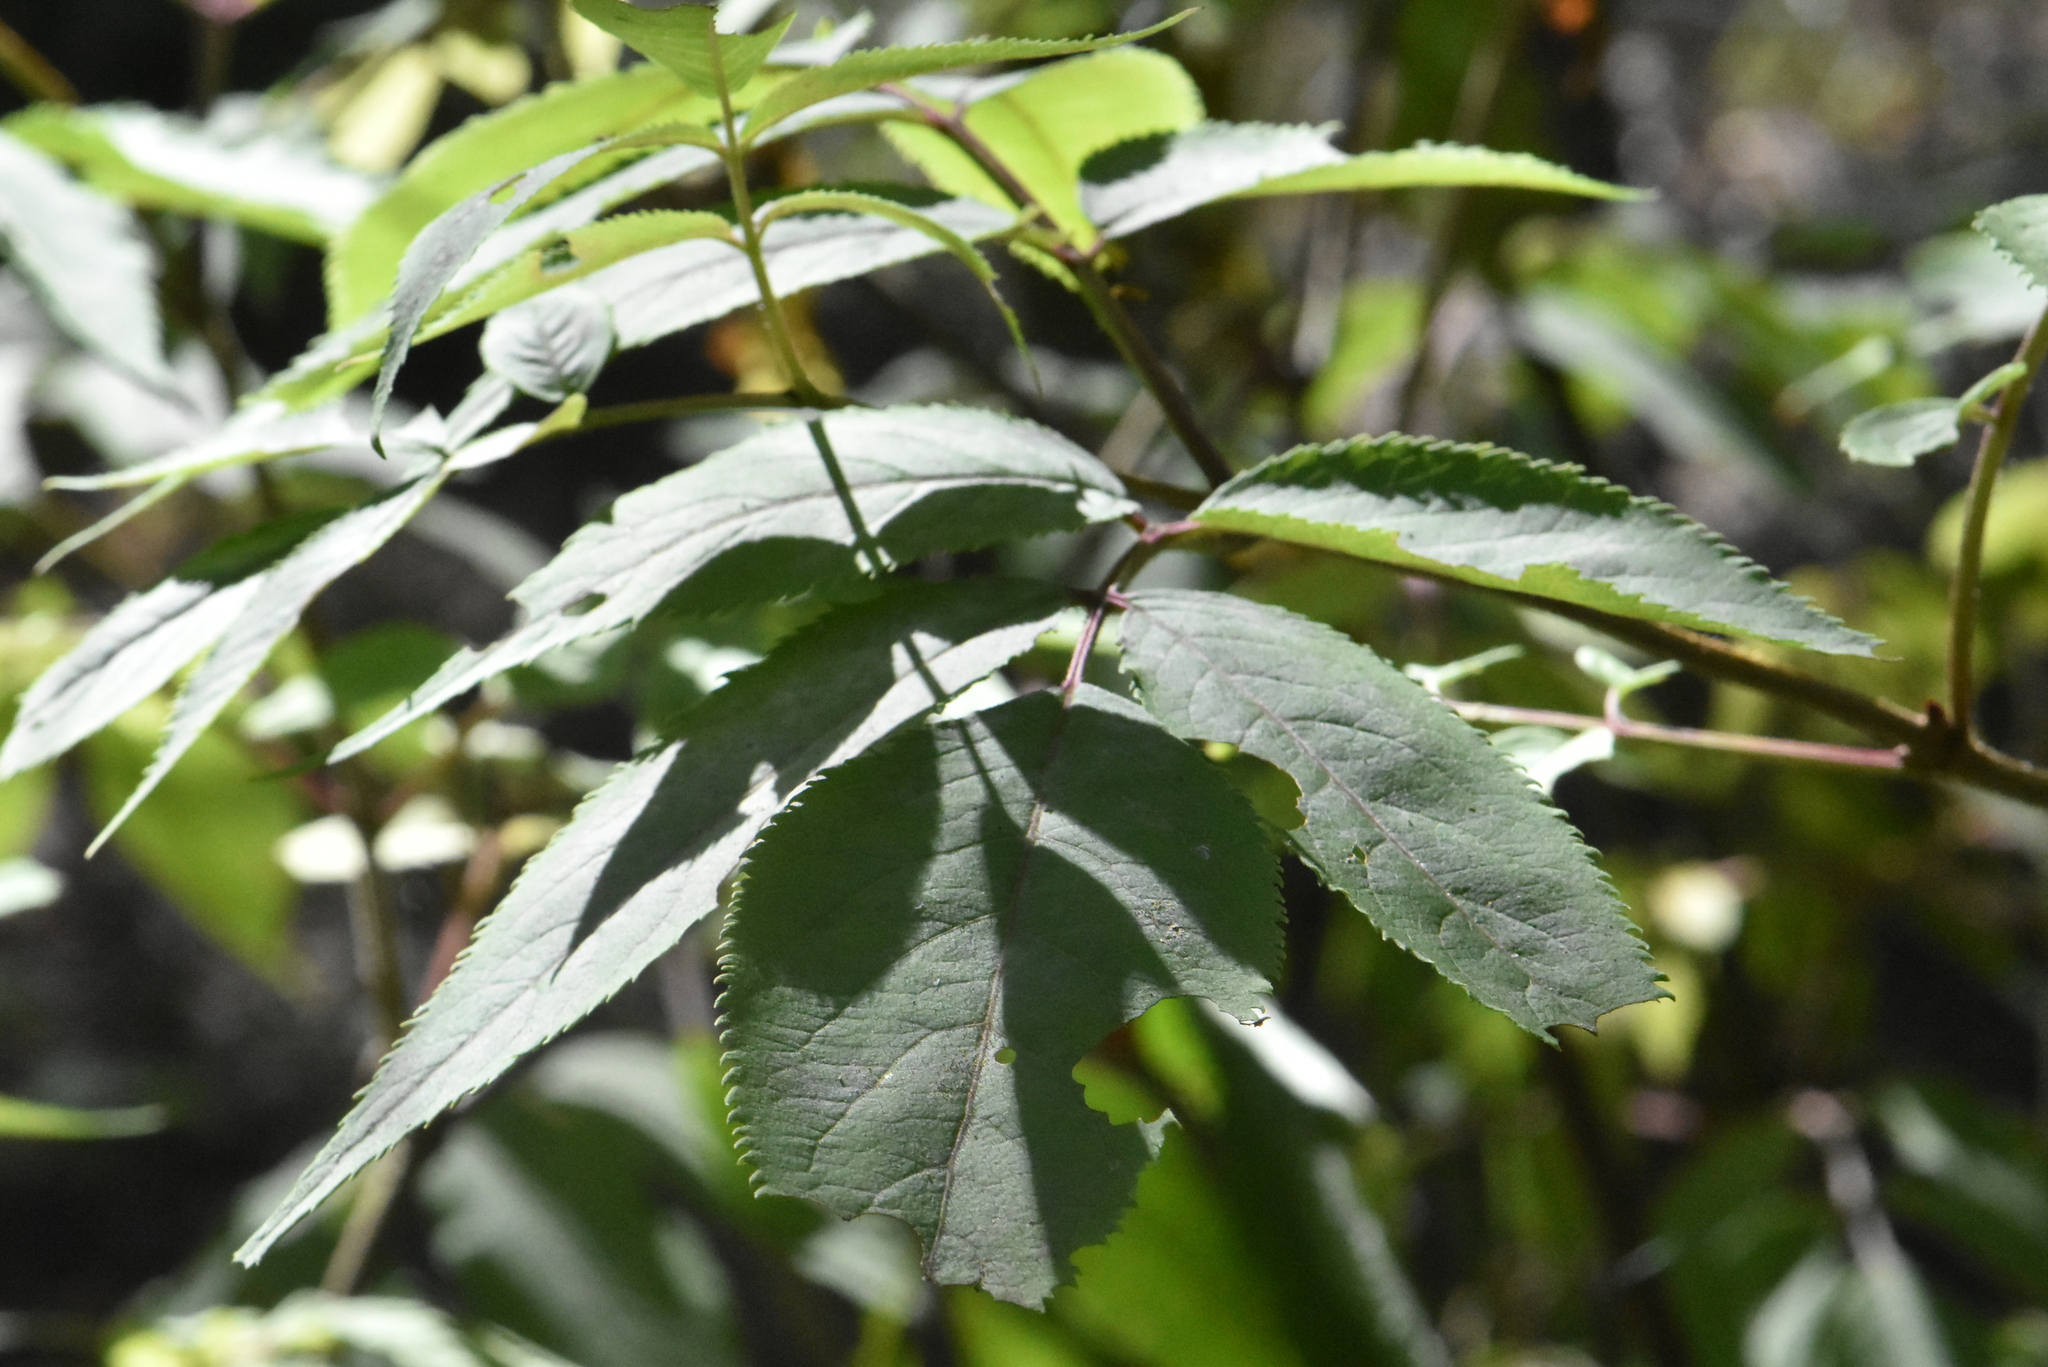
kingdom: Plantae
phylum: Tracheophyta
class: Magnoliopsida
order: Dipsacales
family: Viburnaceae
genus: Sambucus
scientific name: Sambucus racemosa
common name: Red-berried elder
